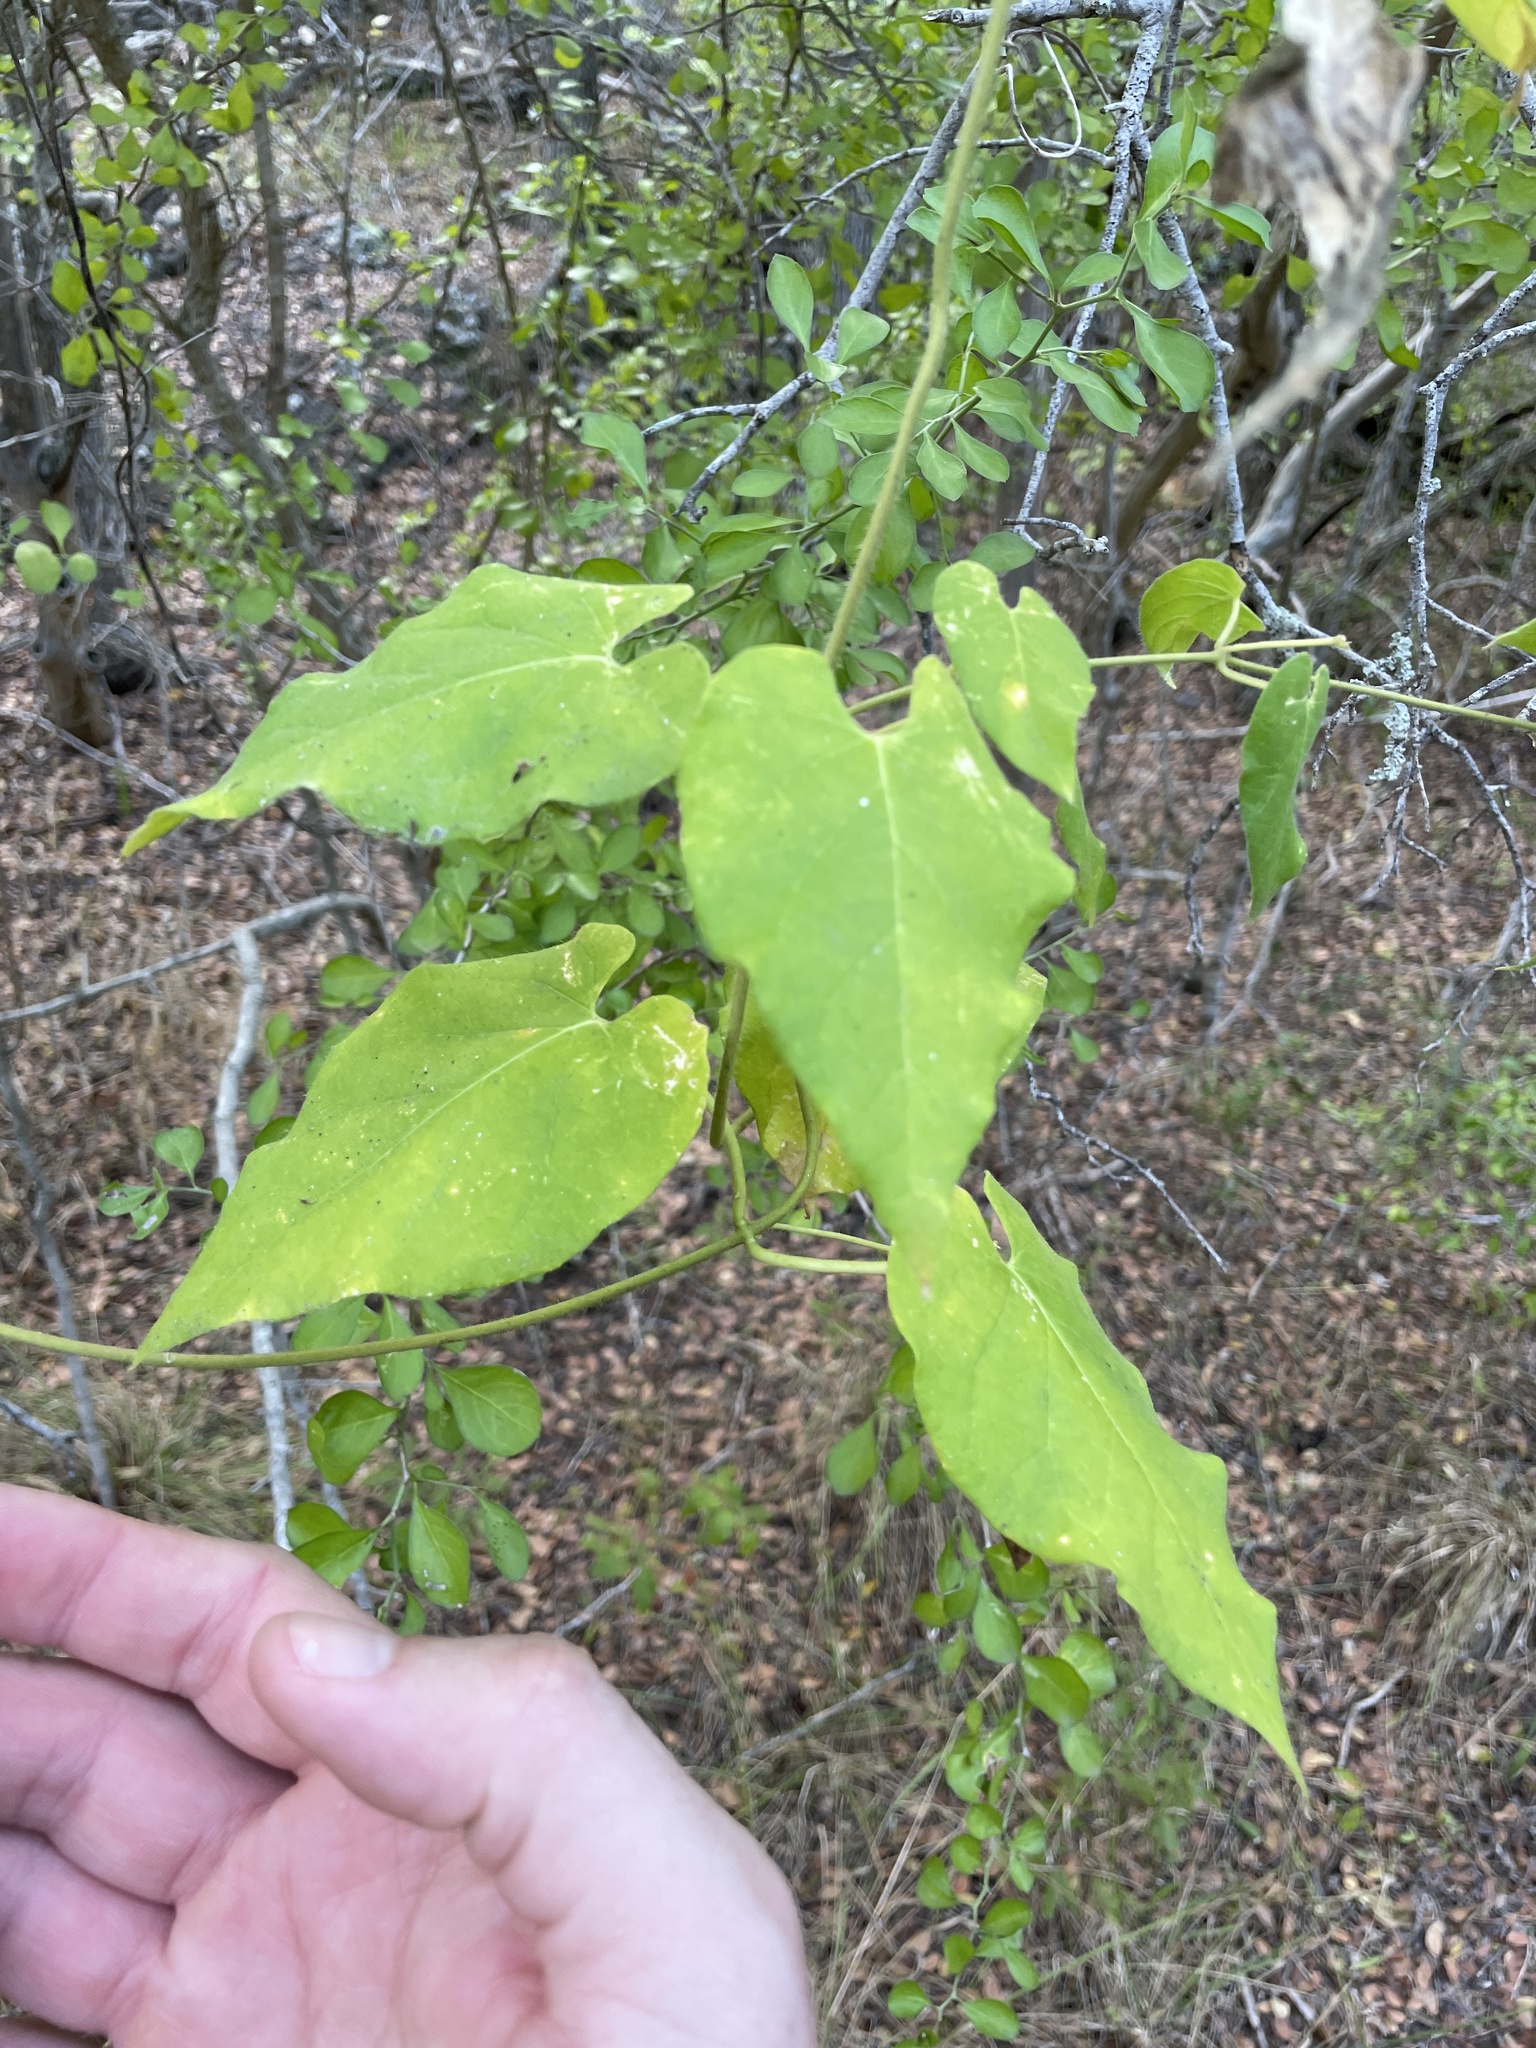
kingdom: Plantae
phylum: Tracheophyta
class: Magnoliopsida
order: Gentianales
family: Apocynaceae
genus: Dictyanthus
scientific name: Dictyanthus reticulatus
